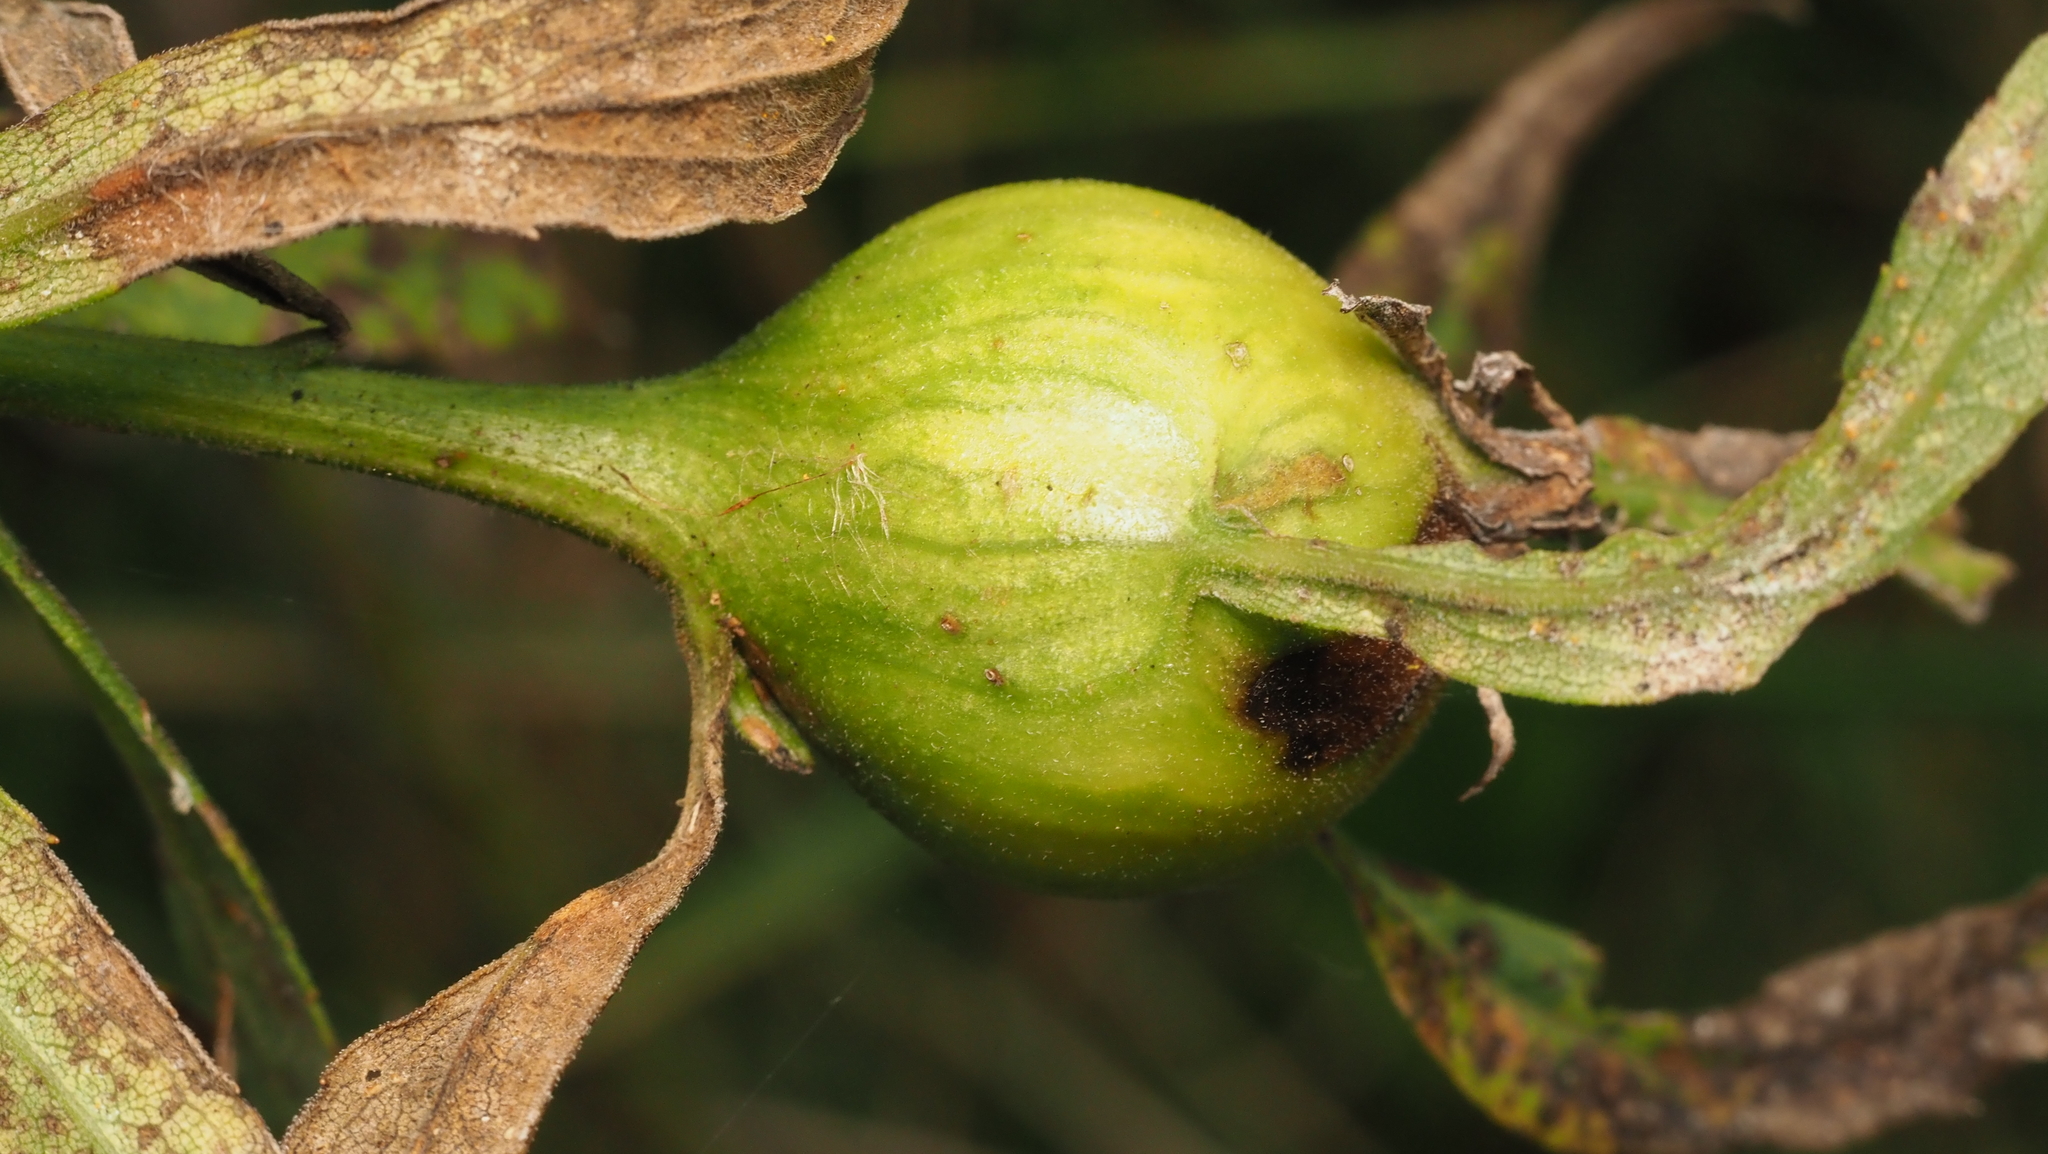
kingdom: Animalia
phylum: Arthropoda
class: Insecta
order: Diptera
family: Tephritidae
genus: Eurosta
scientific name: Eurosta solidaginis
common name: Goldenrod gall fly
